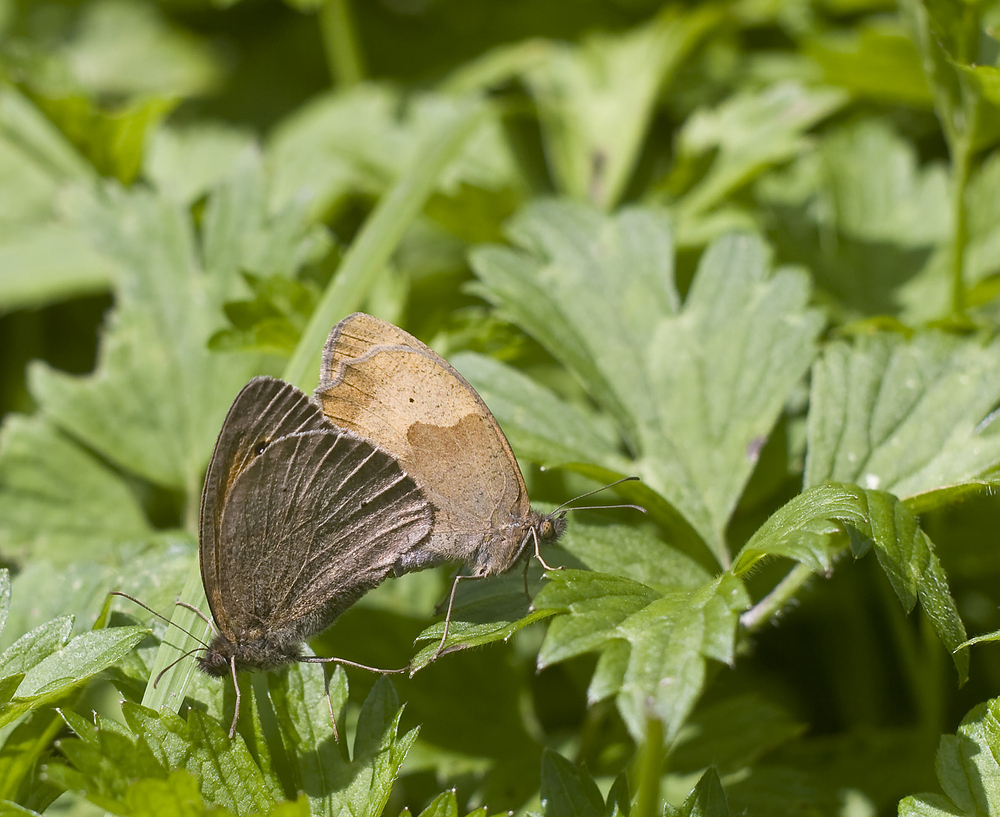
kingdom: Animalia
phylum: Arthropoda
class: Insecta
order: Lepidoptera
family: Nymphalidae
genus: Maniola
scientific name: Maniola jurtina
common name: Meadow brown
